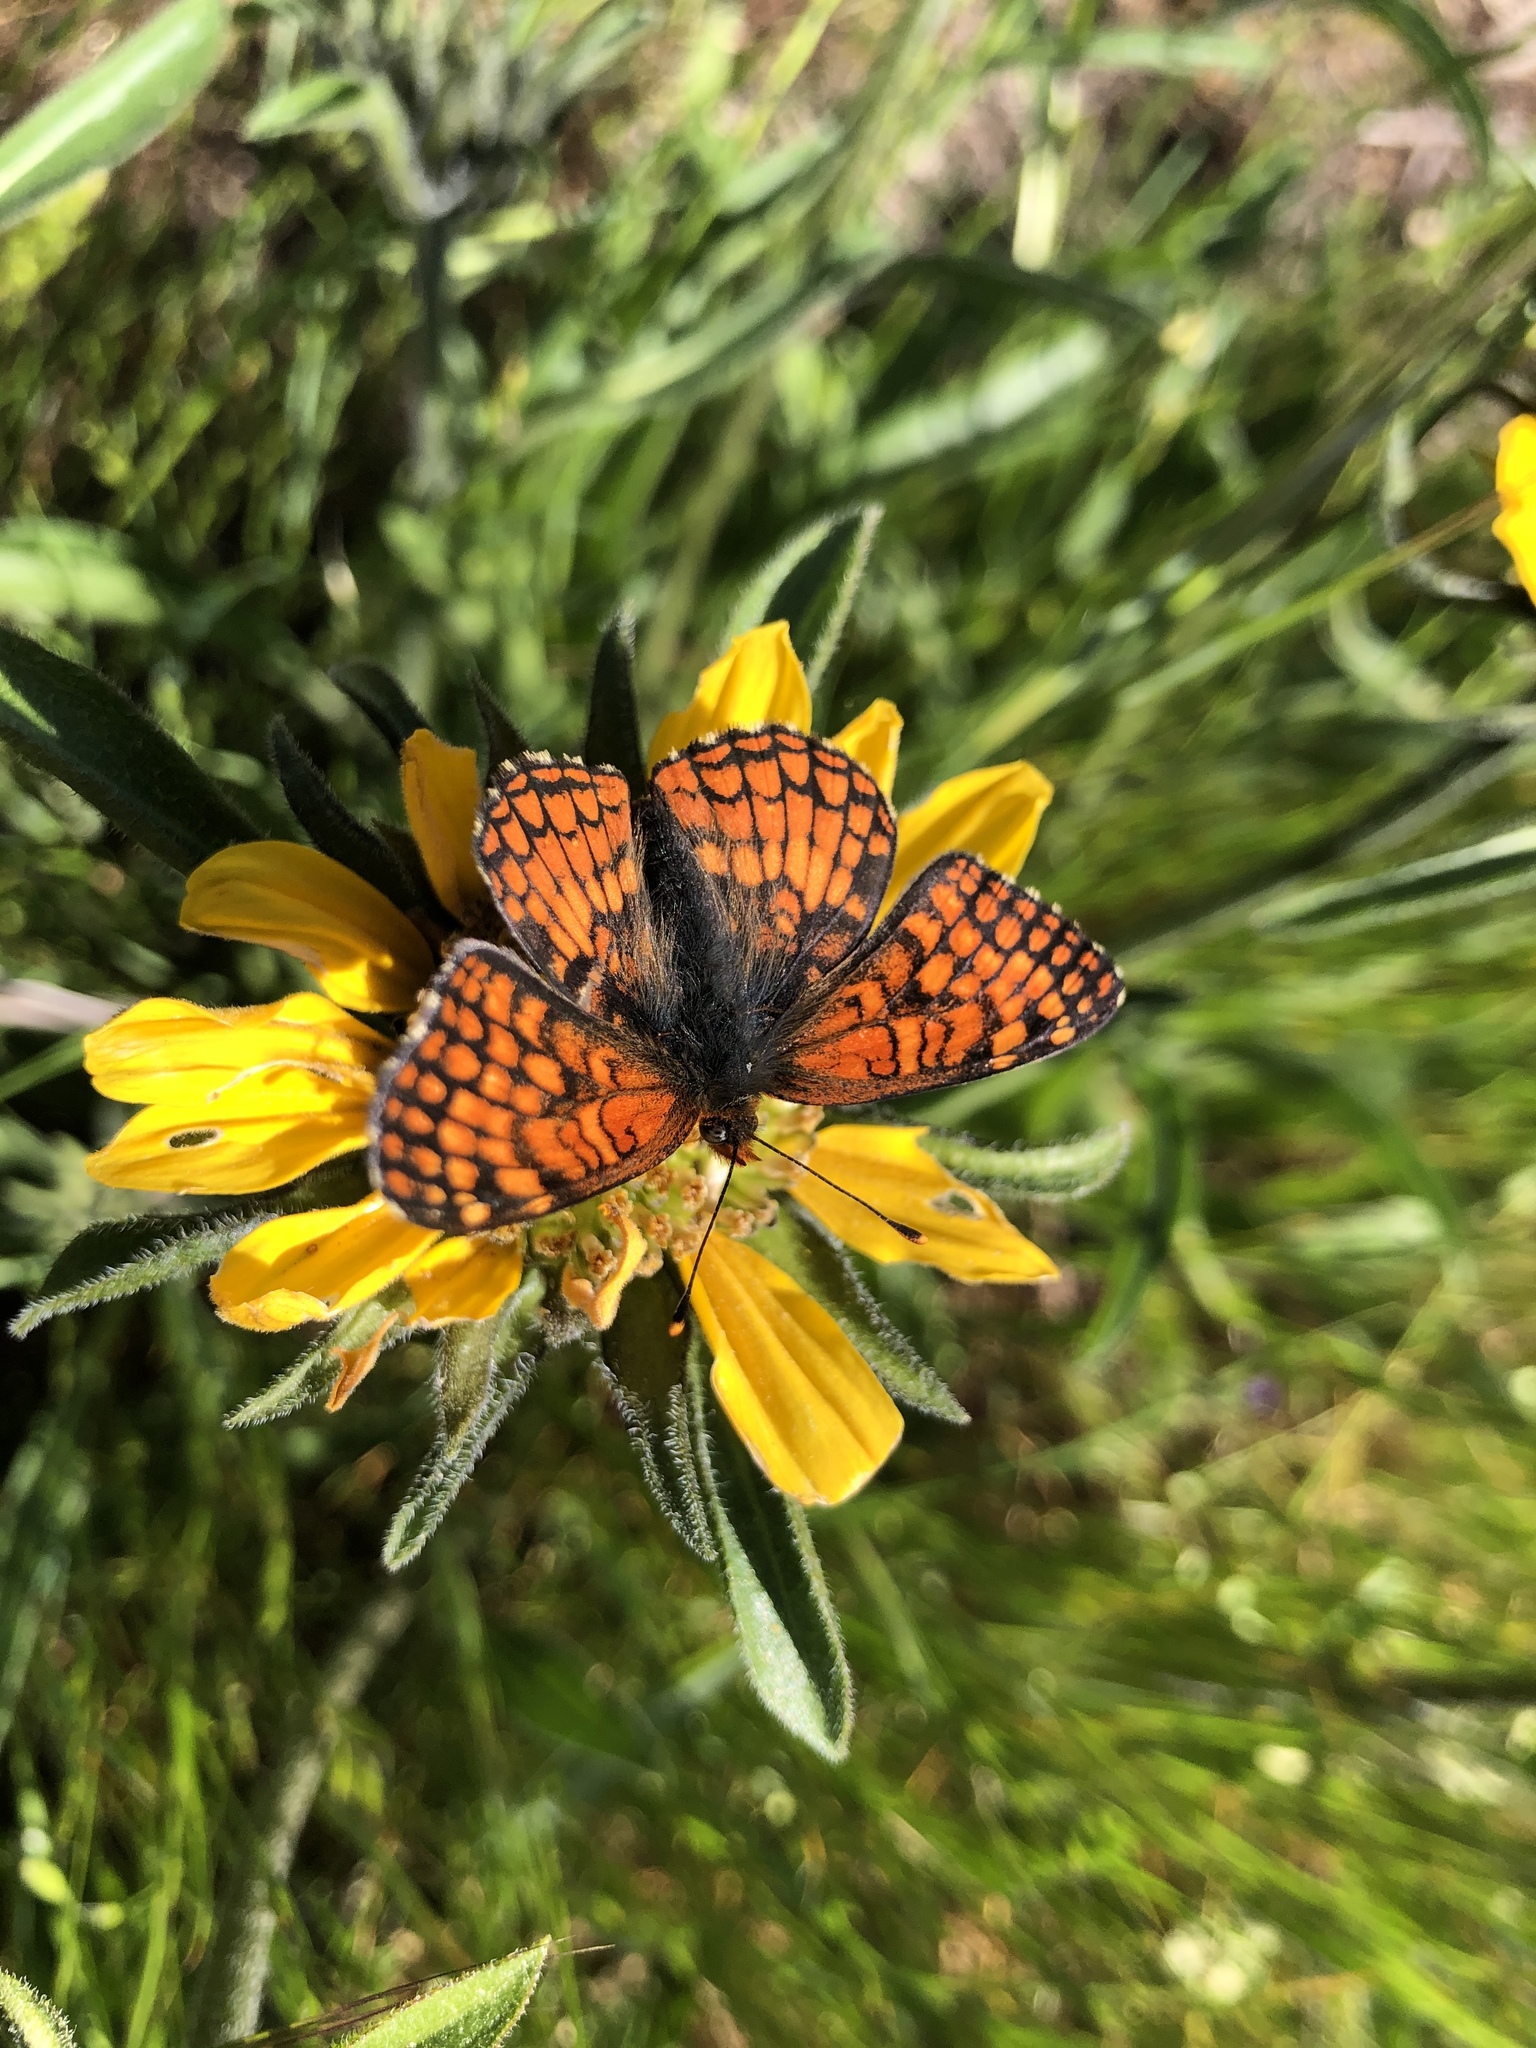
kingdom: Animalia
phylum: Arthropoda
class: Insecta
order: Lepidoptera
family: Nymphalidae
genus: Chlosyne
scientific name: Chlosyne palla
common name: Northern checkerspot
